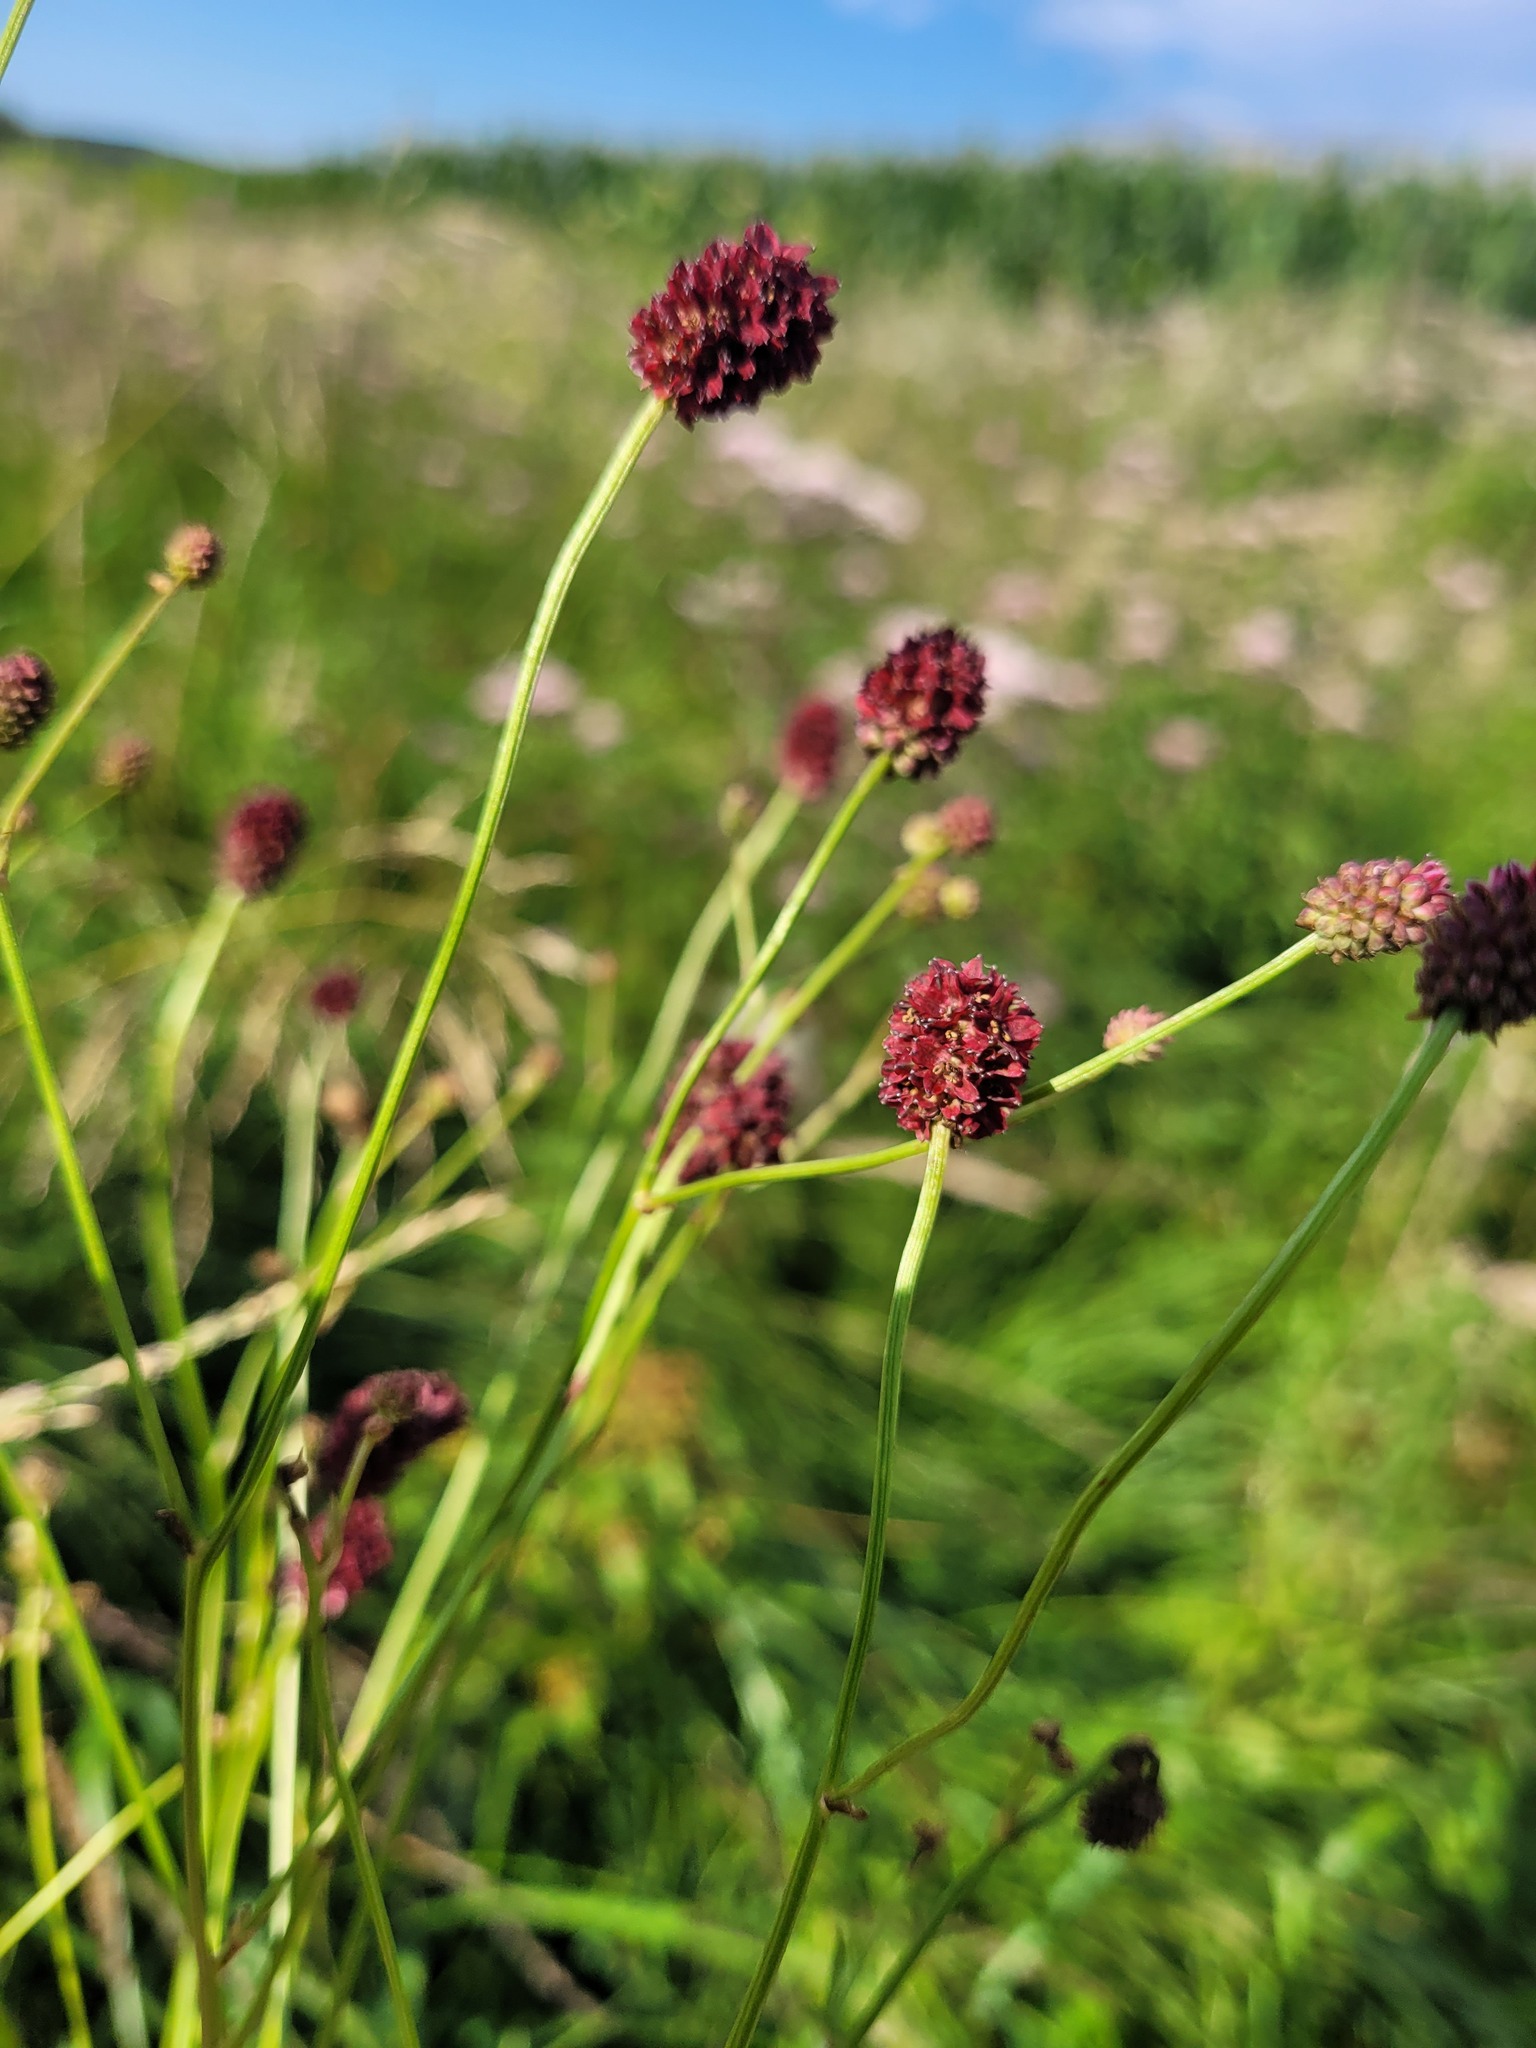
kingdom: Plantae
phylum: Tracheophyta
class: Magnoliopsida
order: Rosales
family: Rosaceae
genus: Sanguisorba
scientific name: Sanguisorba officinalis
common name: Great burnet
